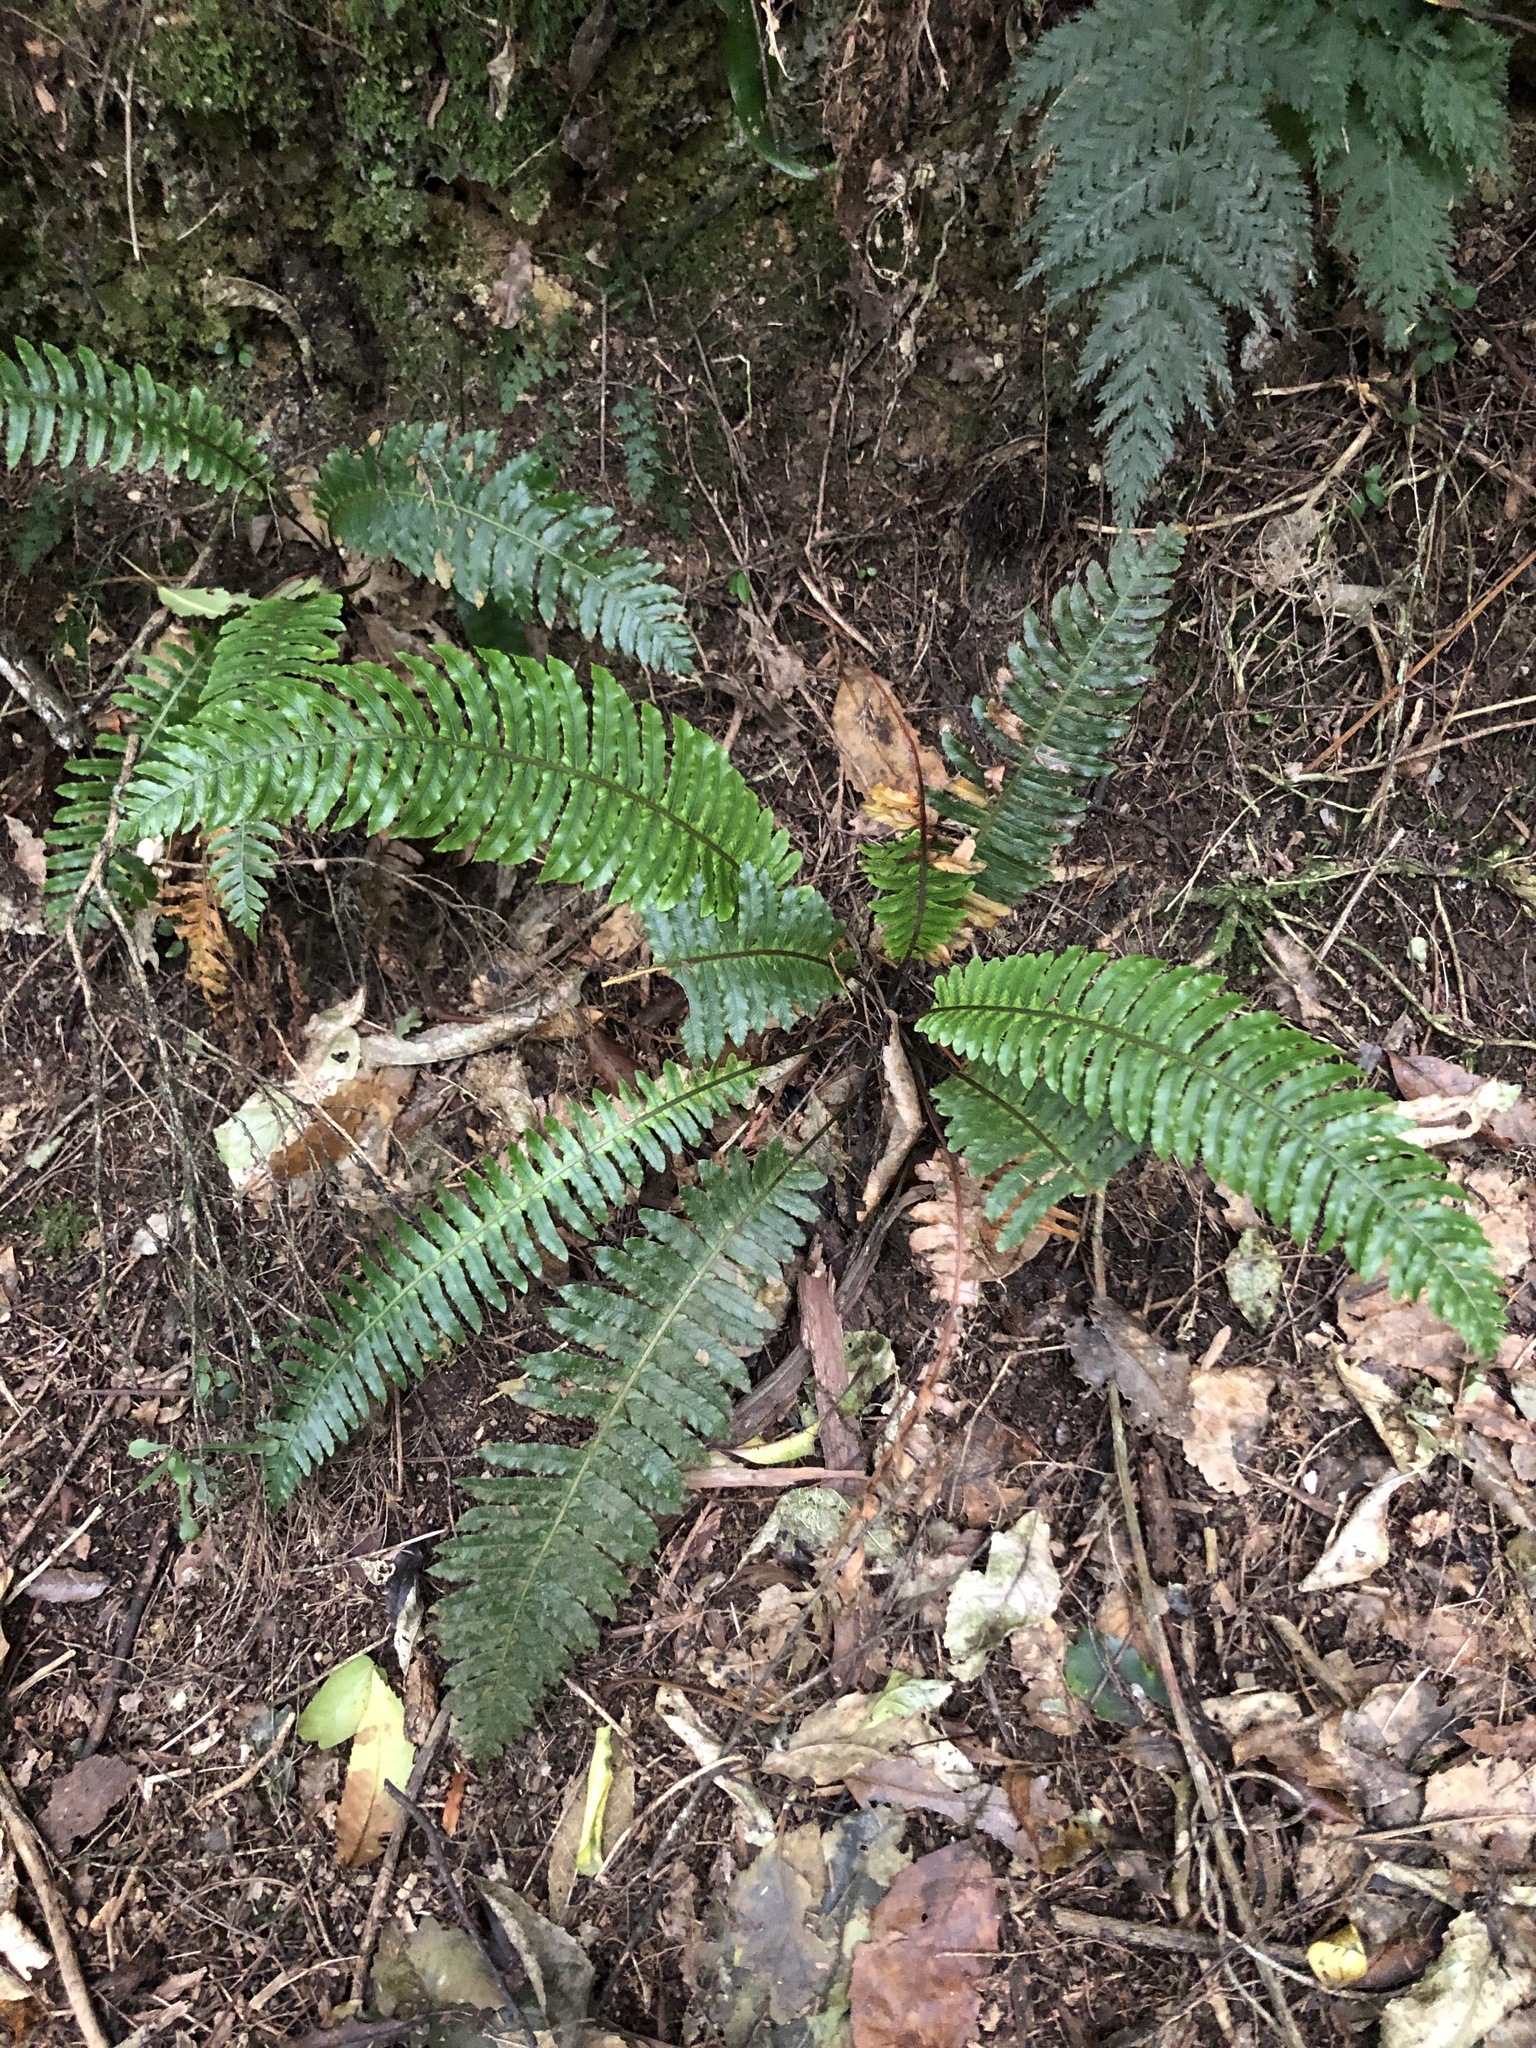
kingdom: Plantae
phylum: Tracheophyta
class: Polypodiopsida
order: Polypodiales
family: Blechnaceae
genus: Lomaria
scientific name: Lomaria discolor
